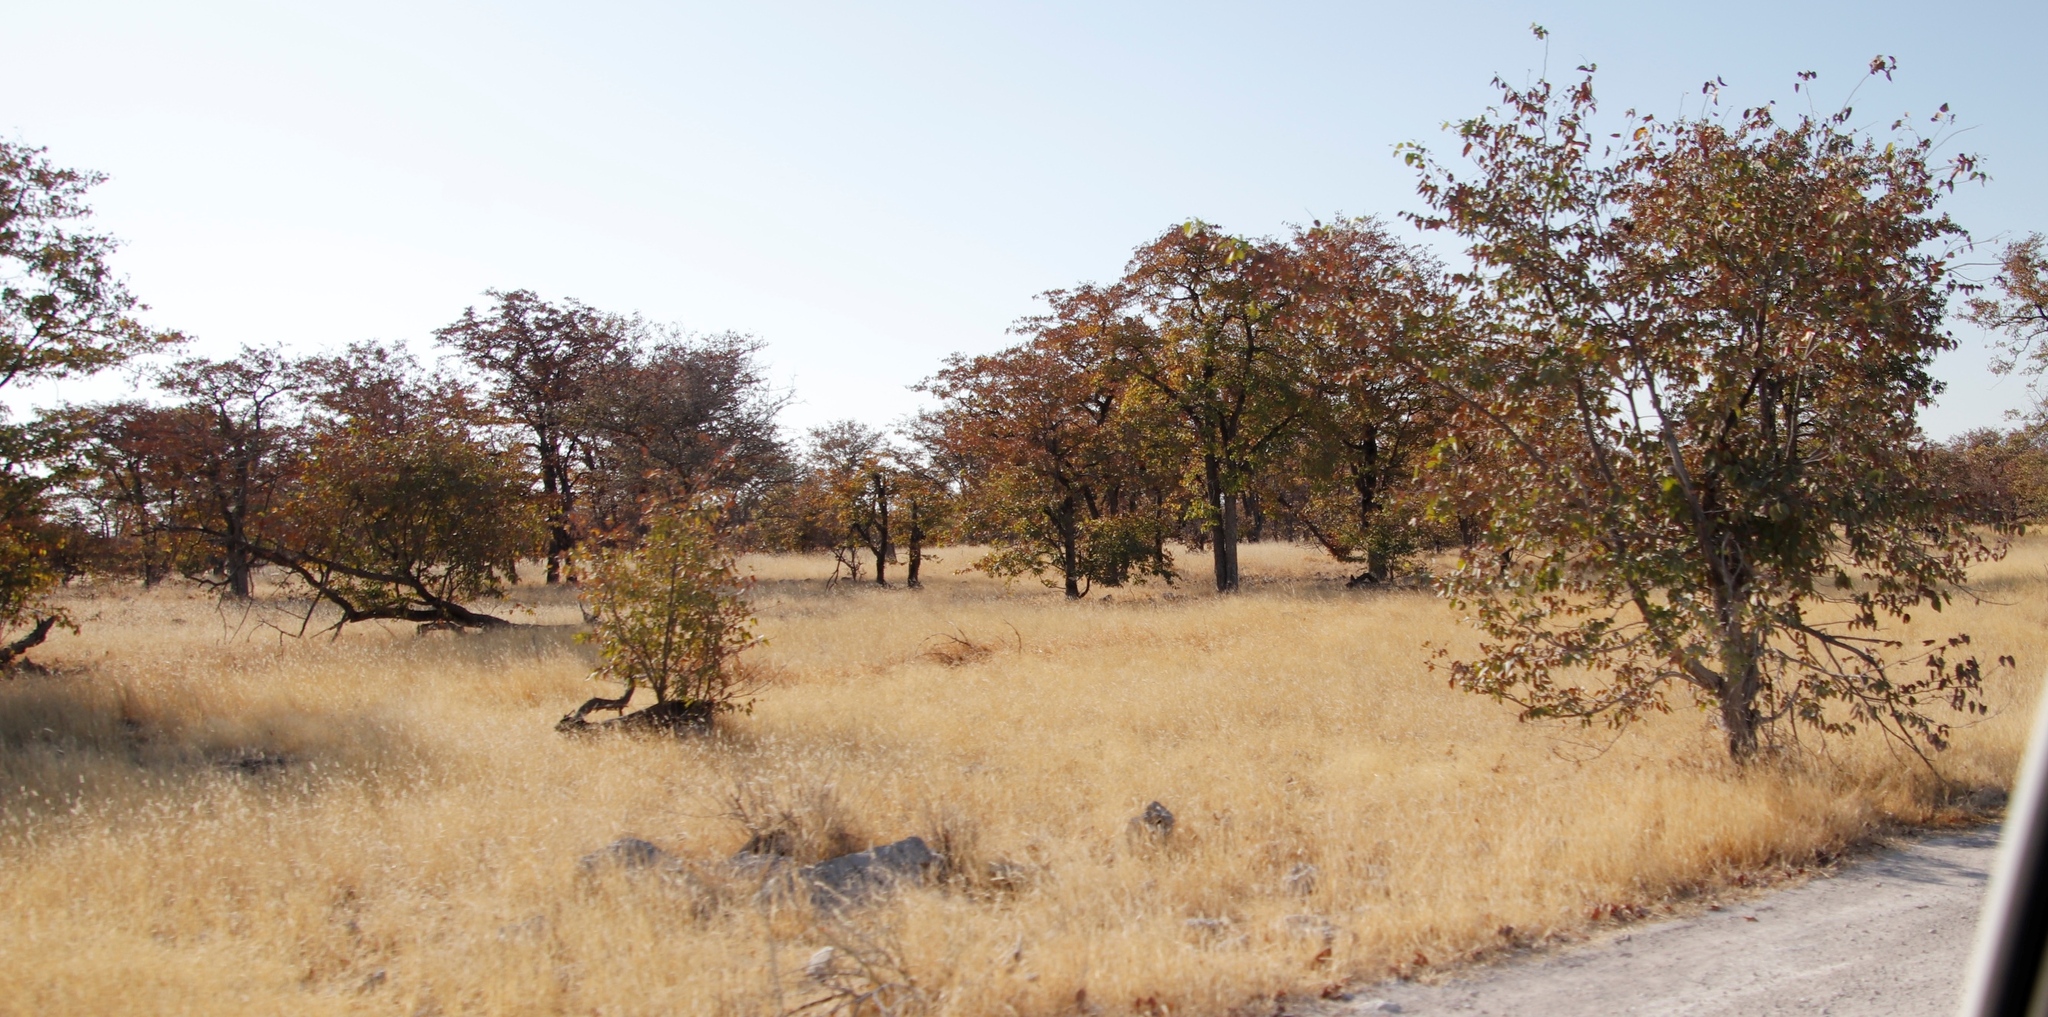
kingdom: Plantae
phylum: Tracheophyta
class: Magnoliopsida
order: Fabales
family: Fabaceae
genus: Colophospermum
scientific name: Colophospermum mopane
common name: Mopane
